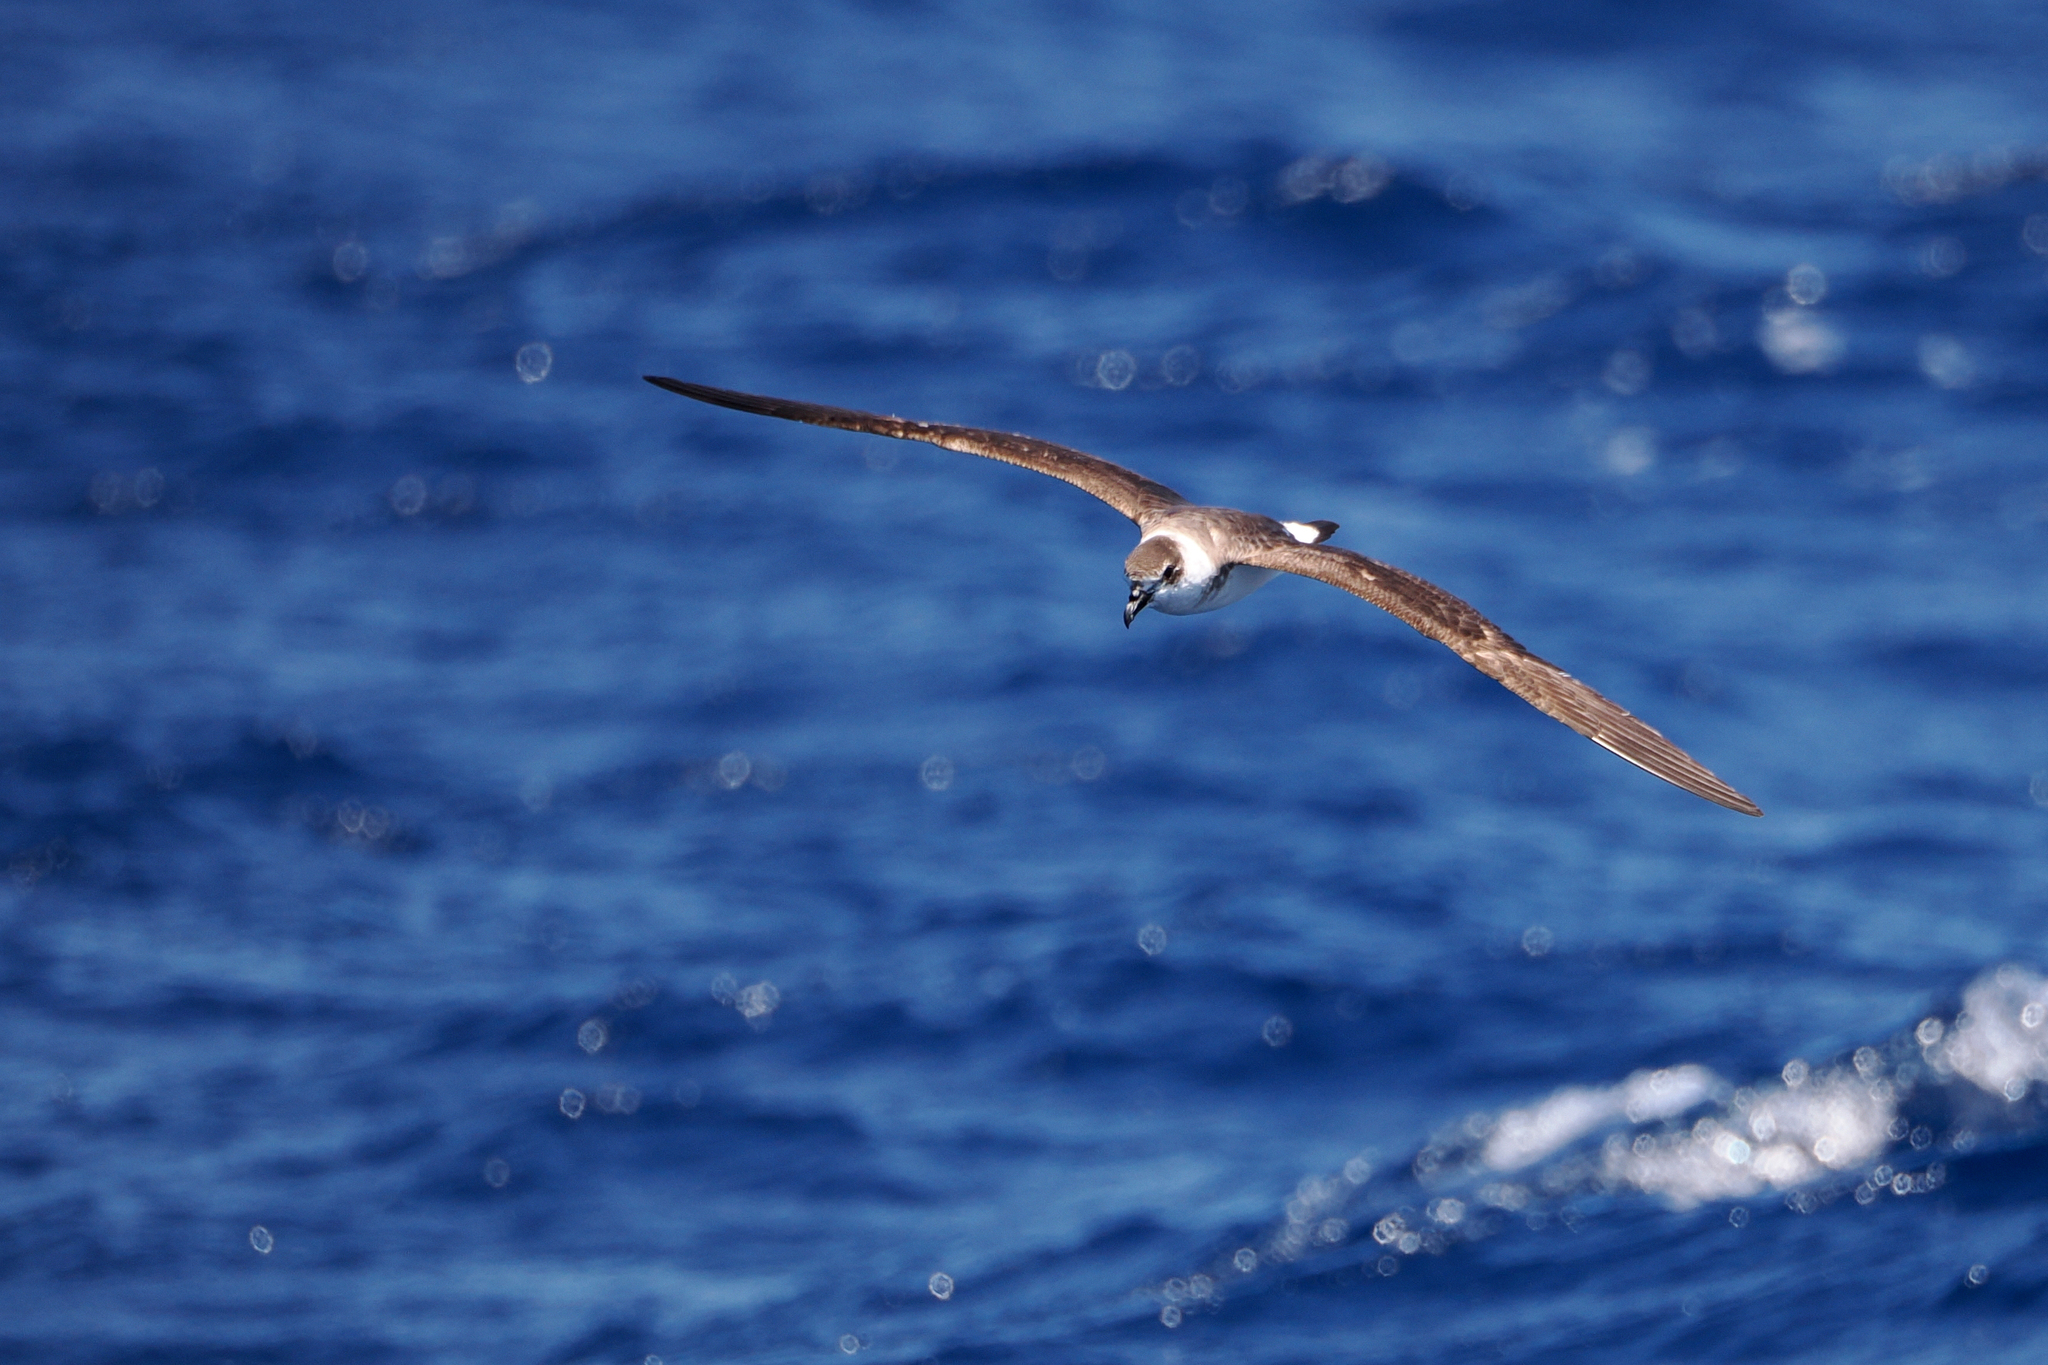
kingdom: Animalia
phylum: Chordata
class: Aves
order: Procellariiformes
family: Procellariidae
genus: Pterodroma
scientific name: Pterodroma hasitata
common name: Black-capped petrel
